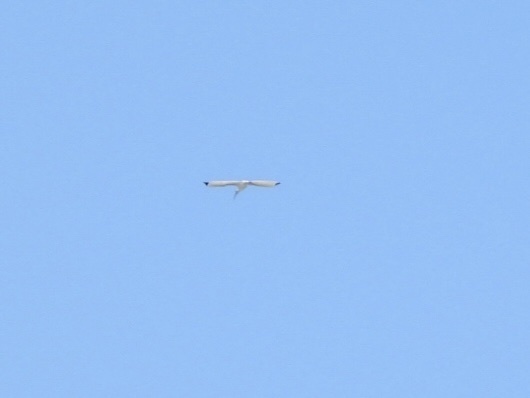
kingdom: Animalia
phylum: Chordata
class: Aves
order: Pelecaniformes
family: Threskiornithidae
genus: Eudocimus
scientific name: Eudocimus albus
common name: White ibis
